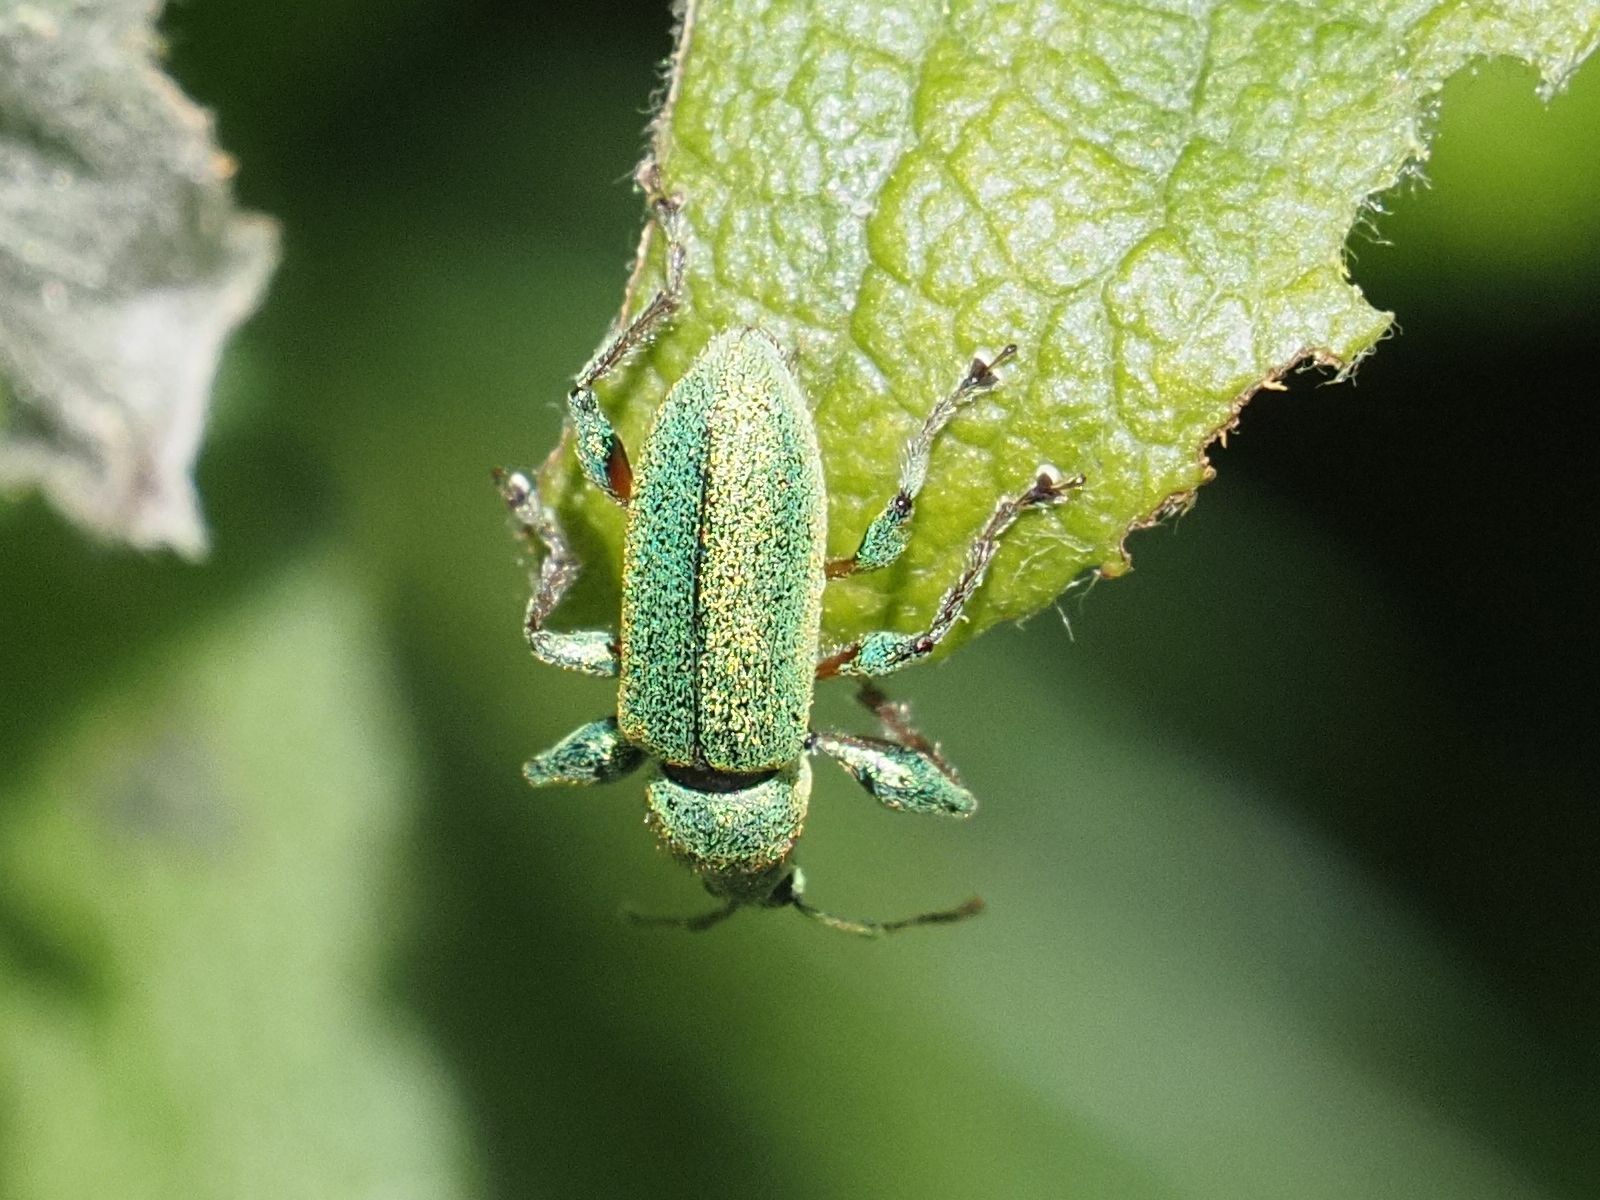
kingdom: Animalia
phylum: Arthropoda
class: Insecta
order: Coleoptera
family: Curculionidae
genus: Phyllobius
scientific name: Phyllobius arborator
